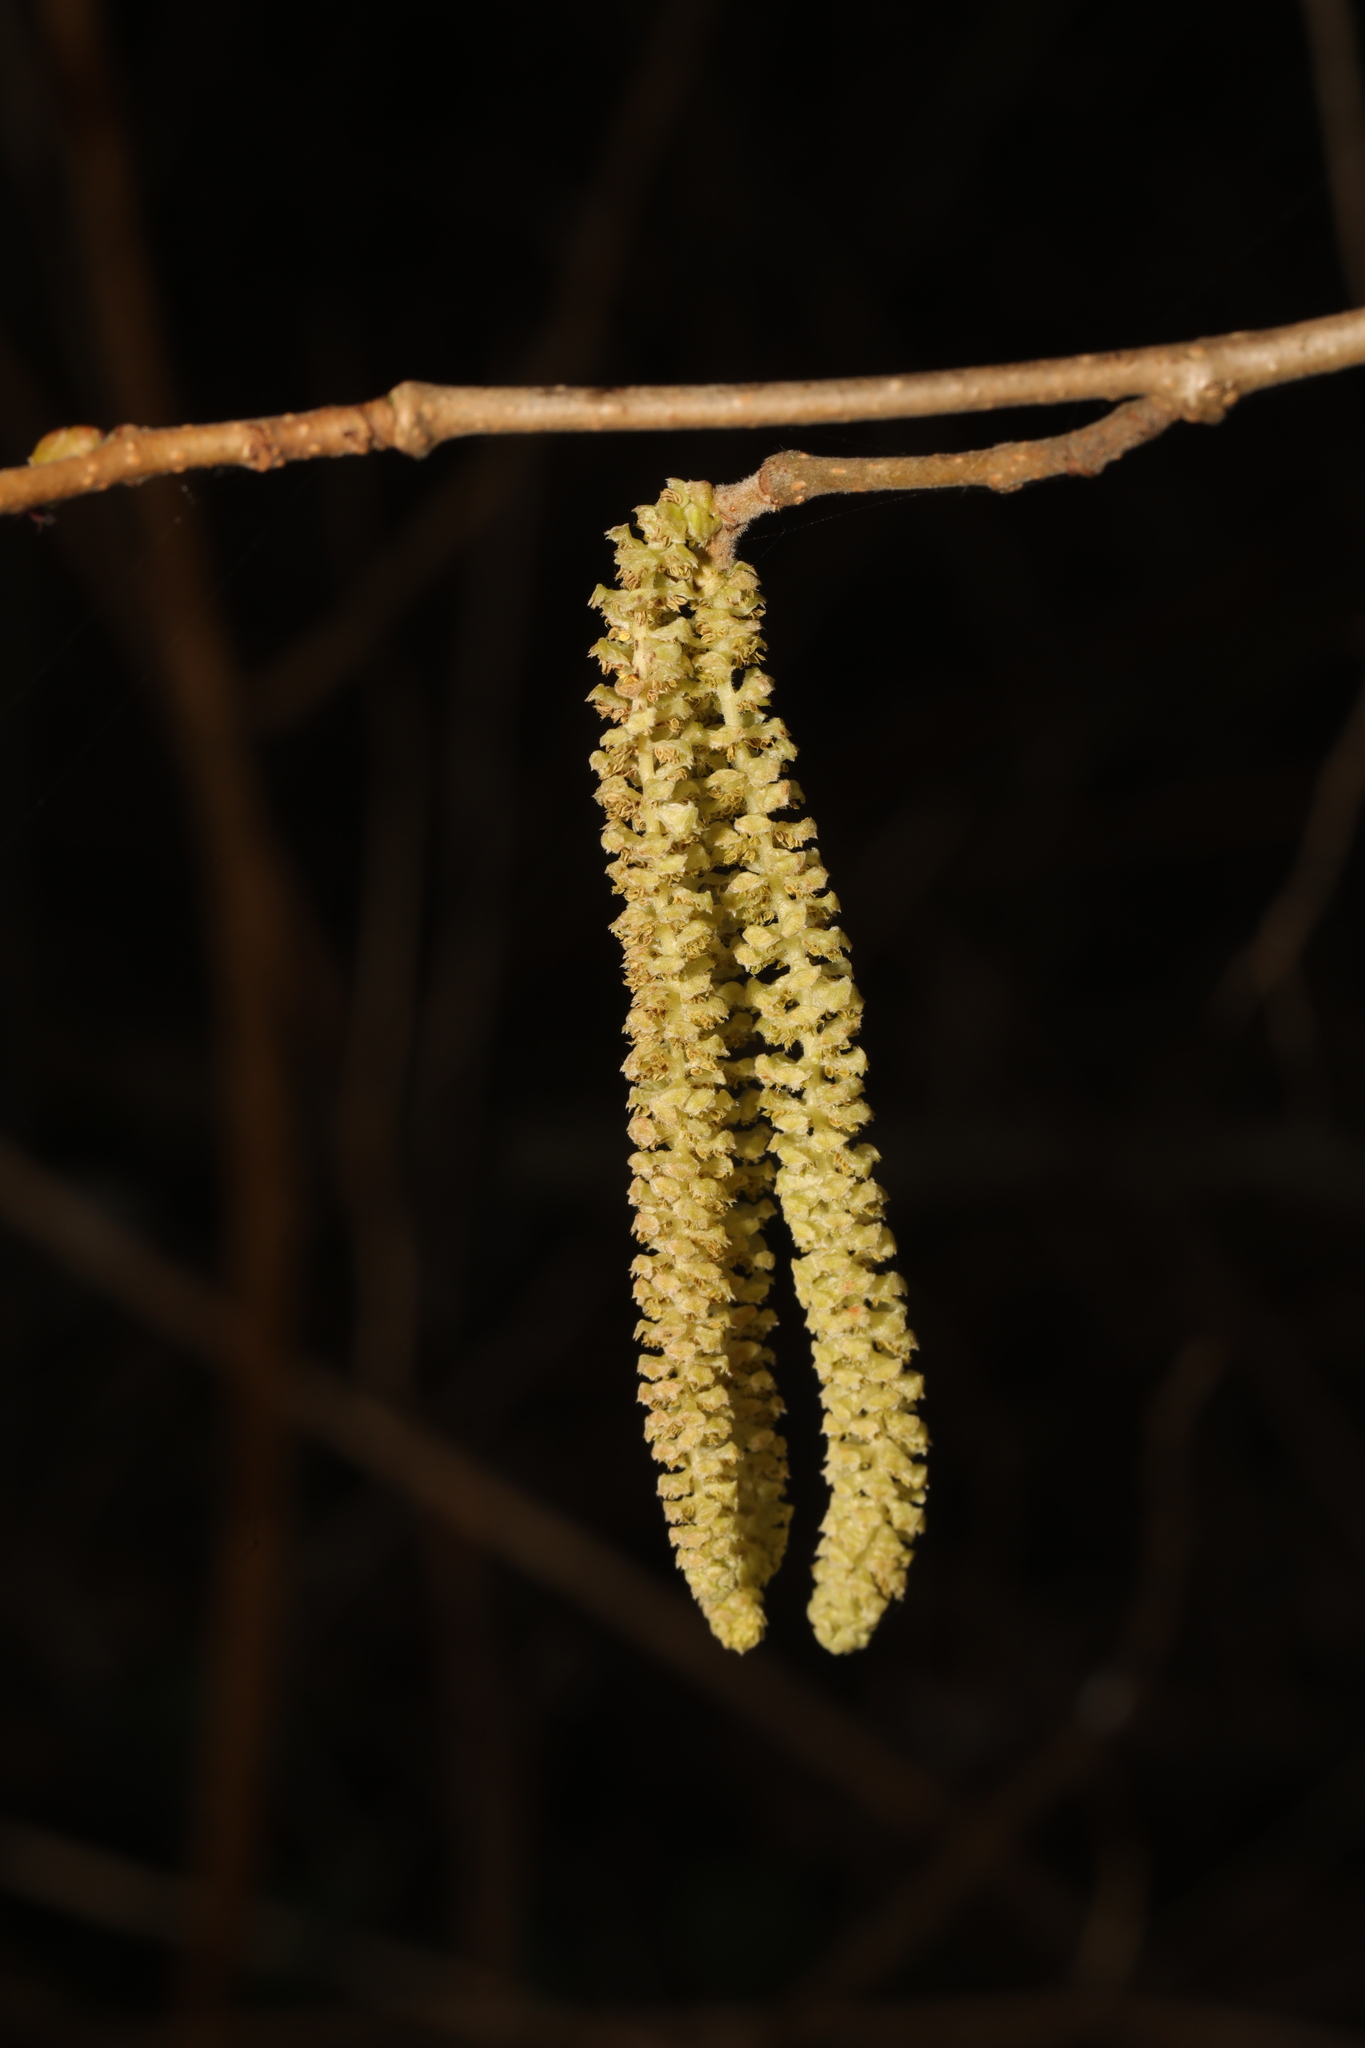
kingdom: Plantae
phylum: Tracheophyta
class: Magnoliopsida
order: Fagales
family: Betulaceae
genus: Corylus
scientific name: Corylus avellana
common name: European hazel
